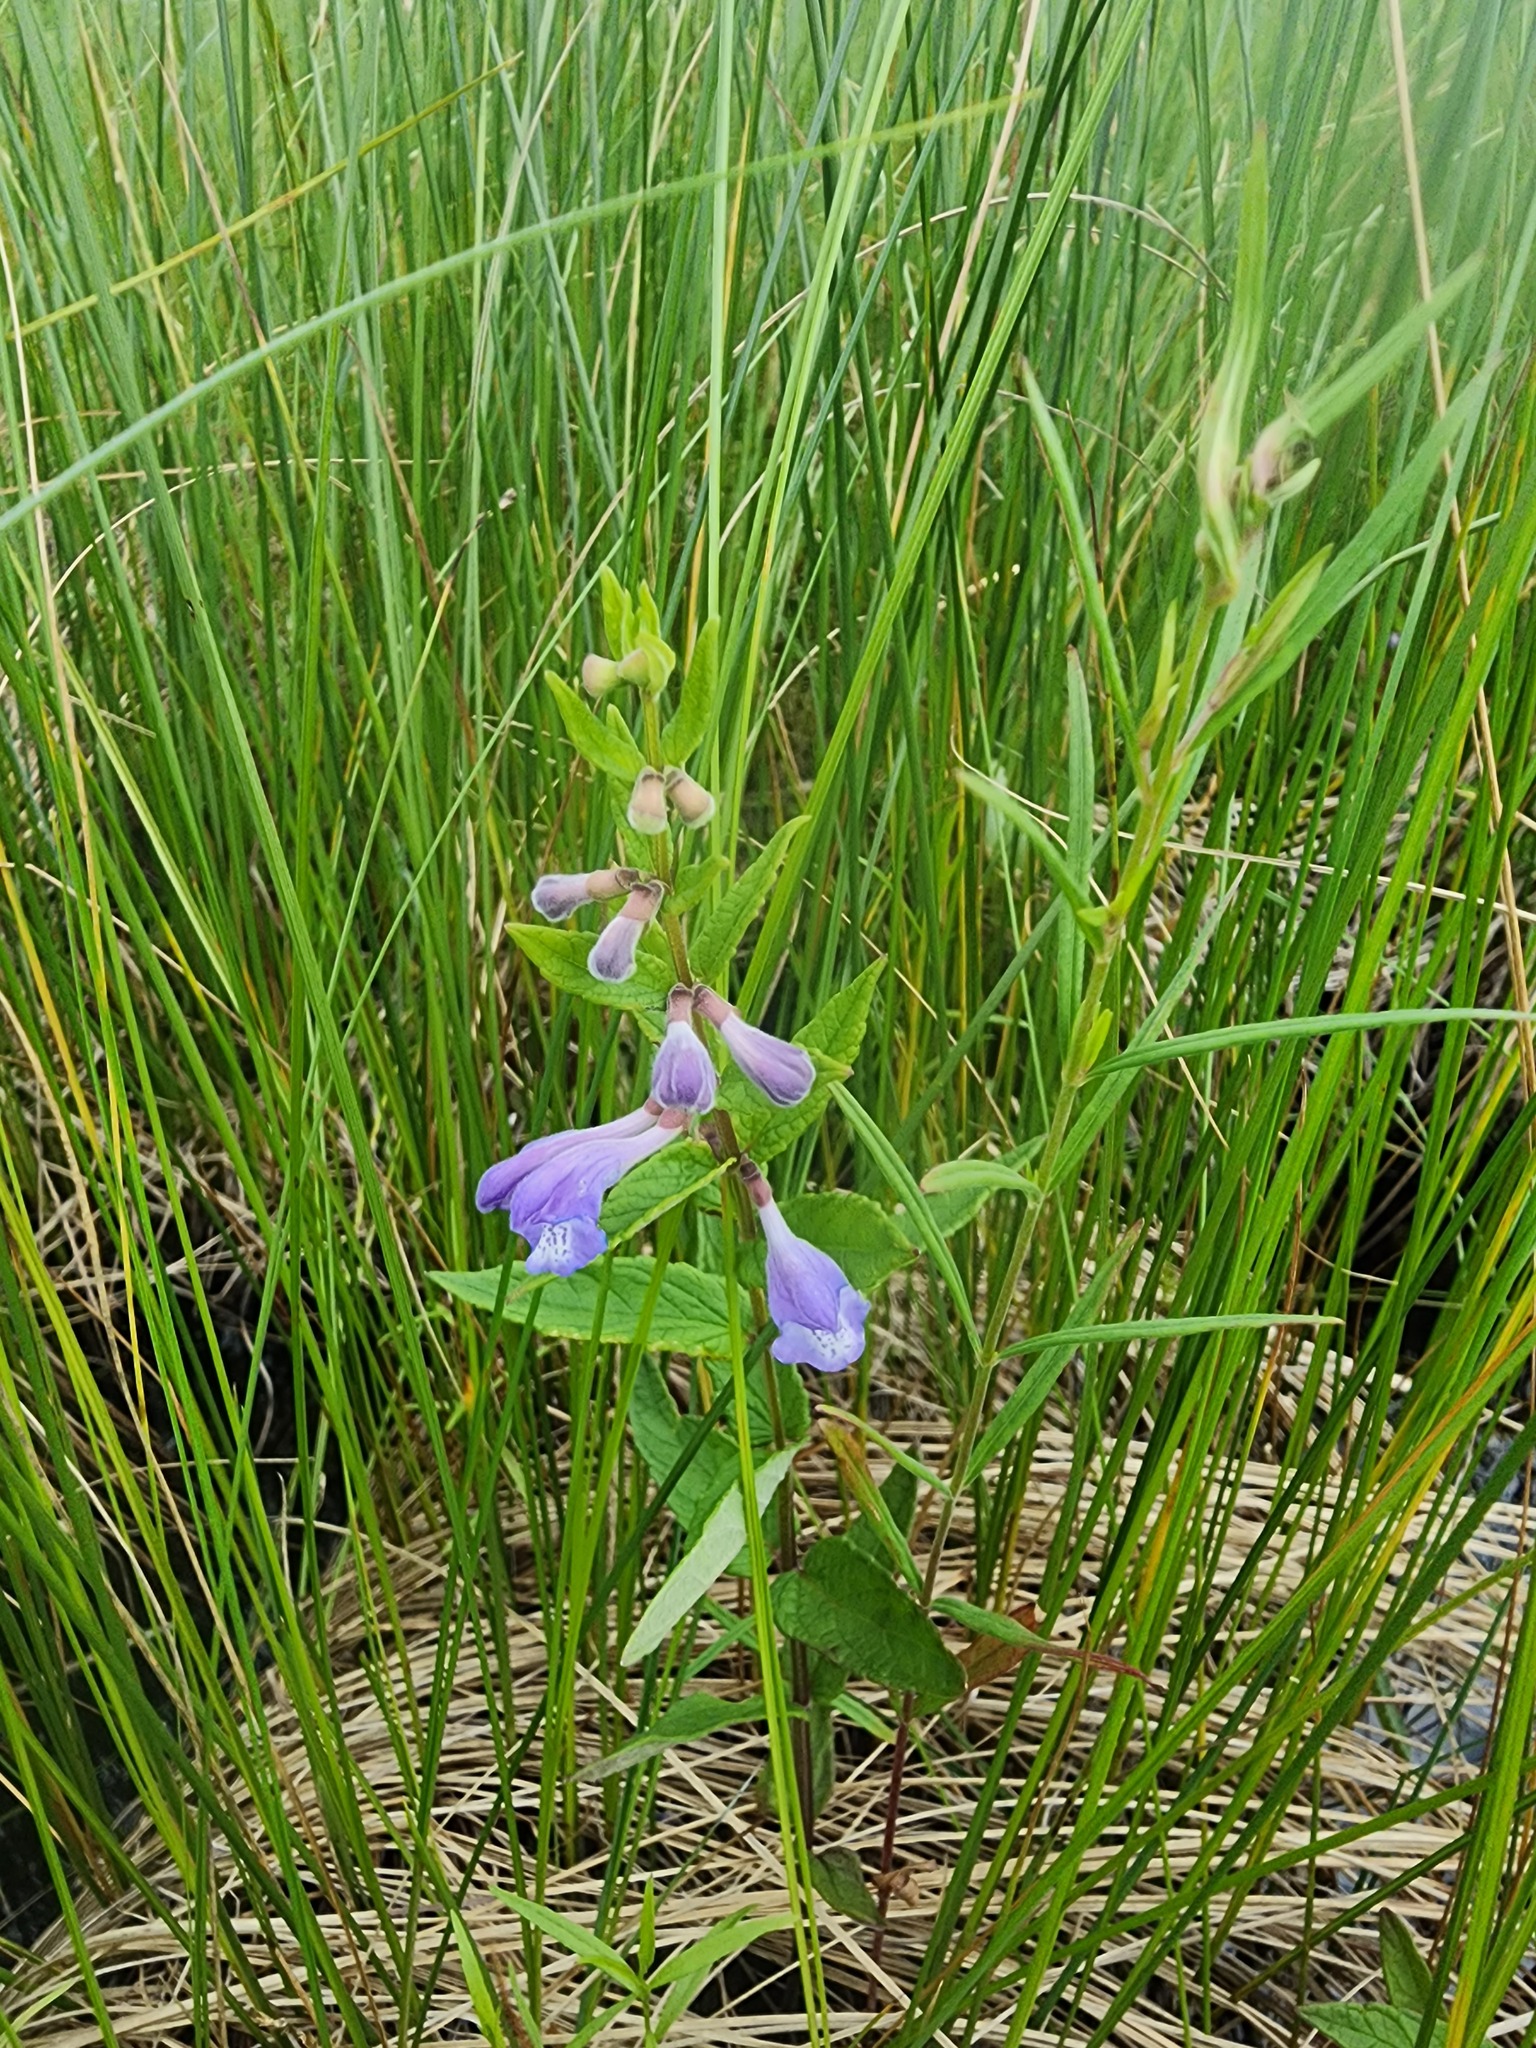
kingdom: Plantae
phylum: Tracheophyta
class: Magnoliopsida
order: Lamiales
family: Lamiaceae
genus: Scutellaria
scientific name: Scutellaria galericulata
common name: Skullcap
